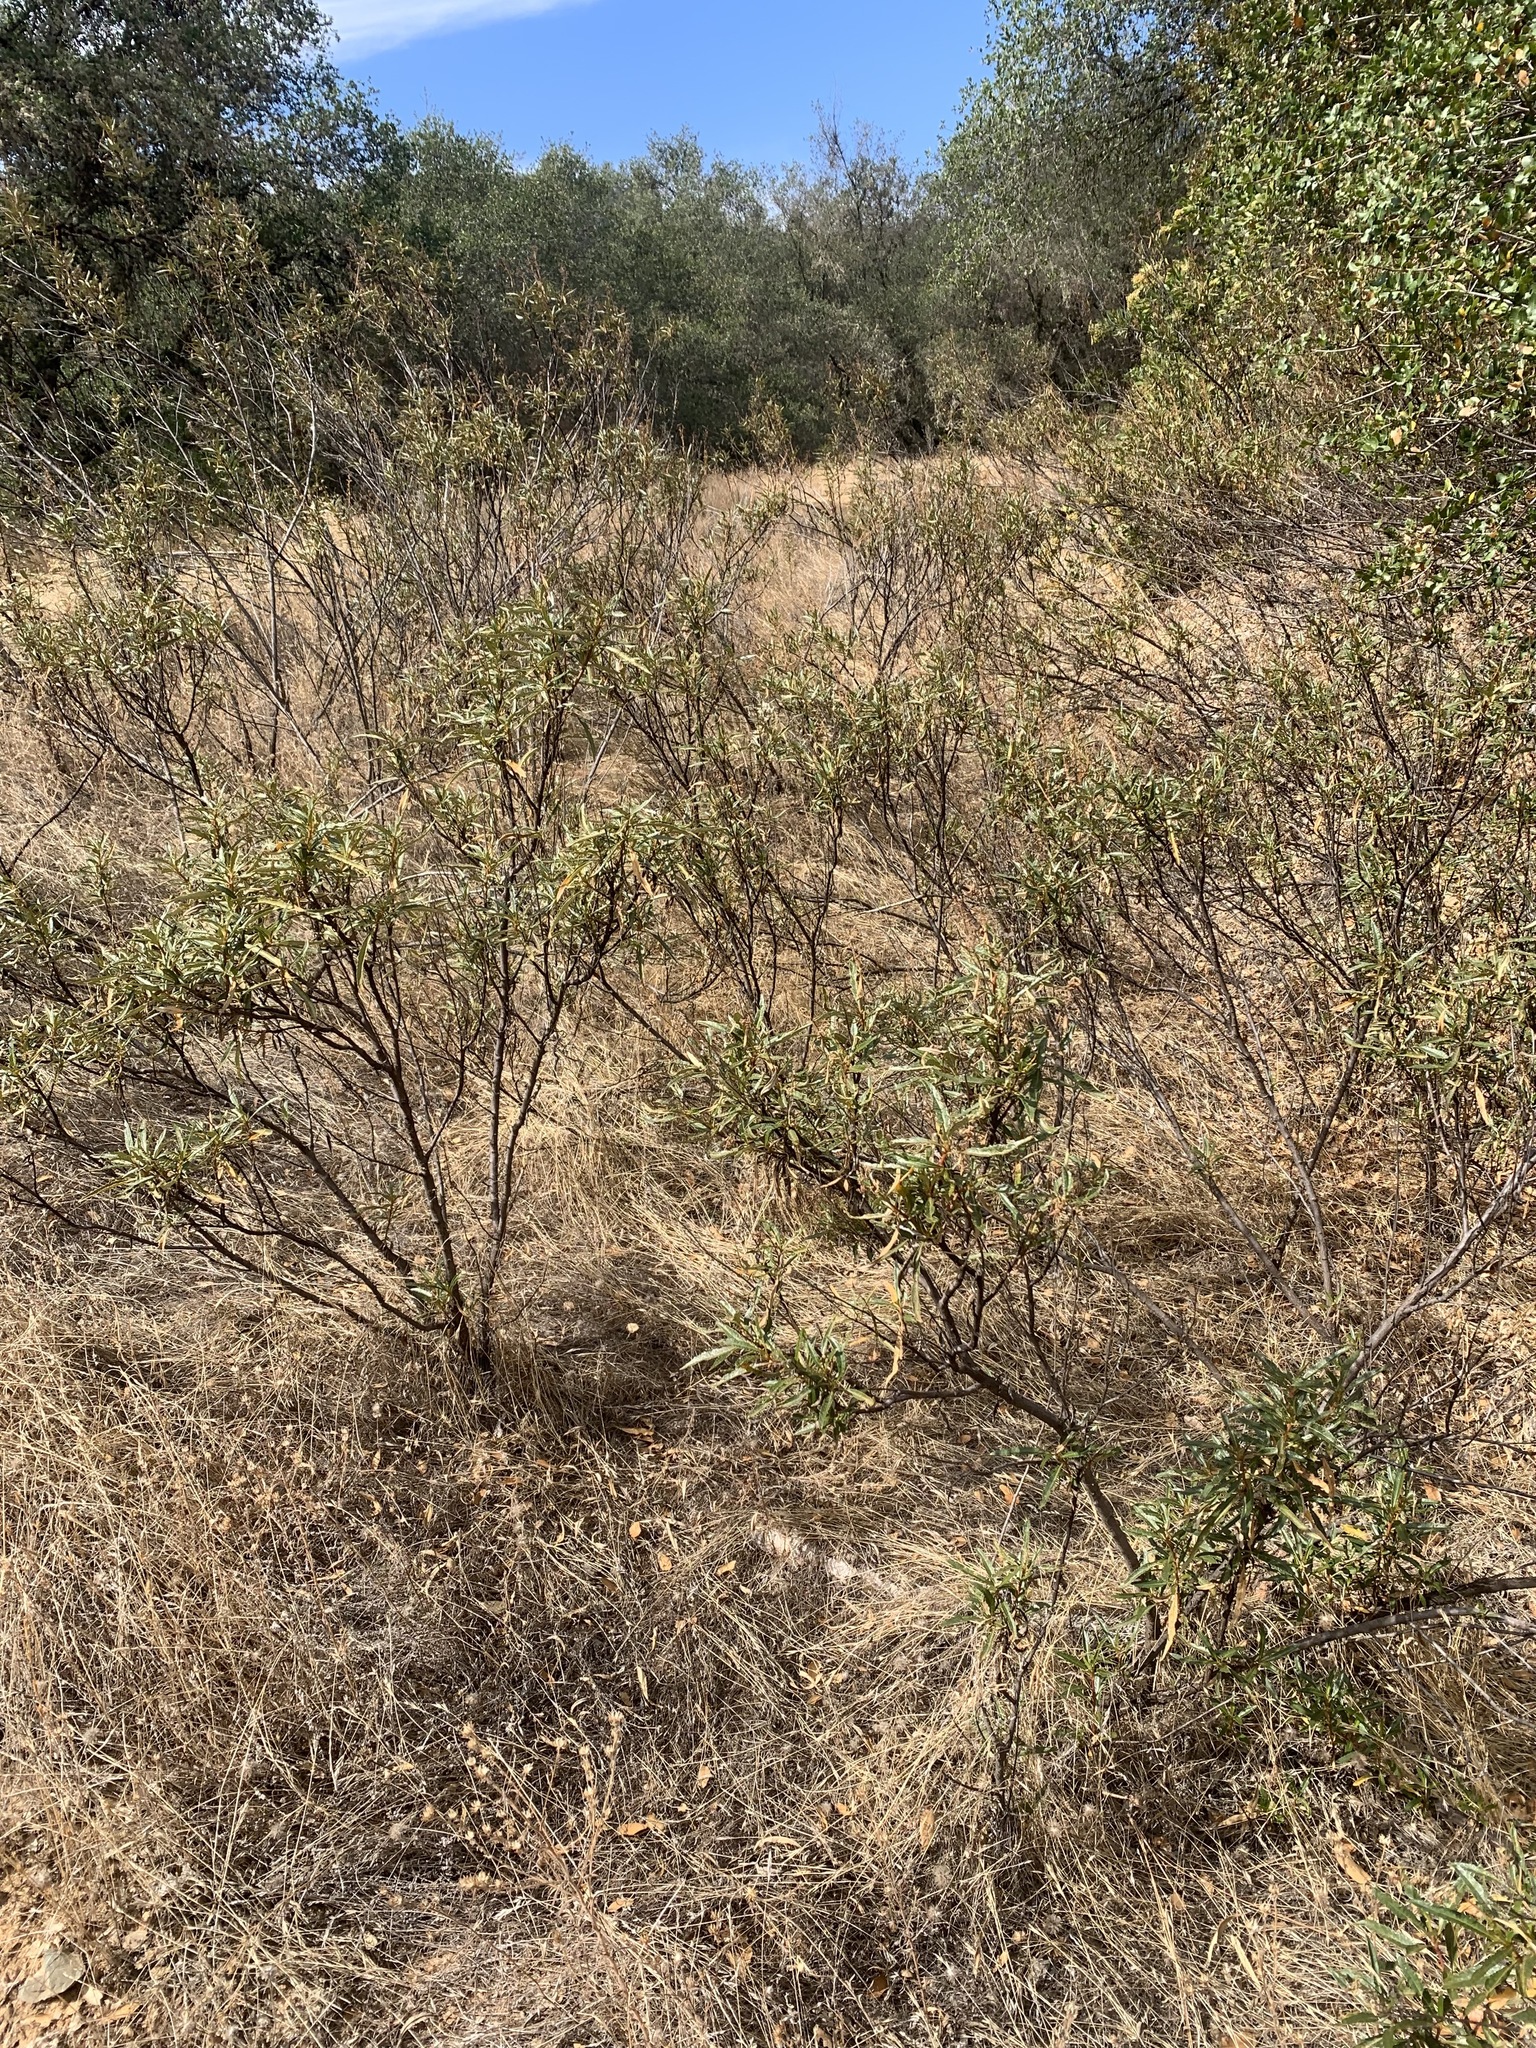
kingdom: Plantae
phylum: Tracheophyta
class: Magnoliopsida
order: Boraginales
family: Namaceae
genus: Eriodictyon
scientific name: Eriodictyon californicum
